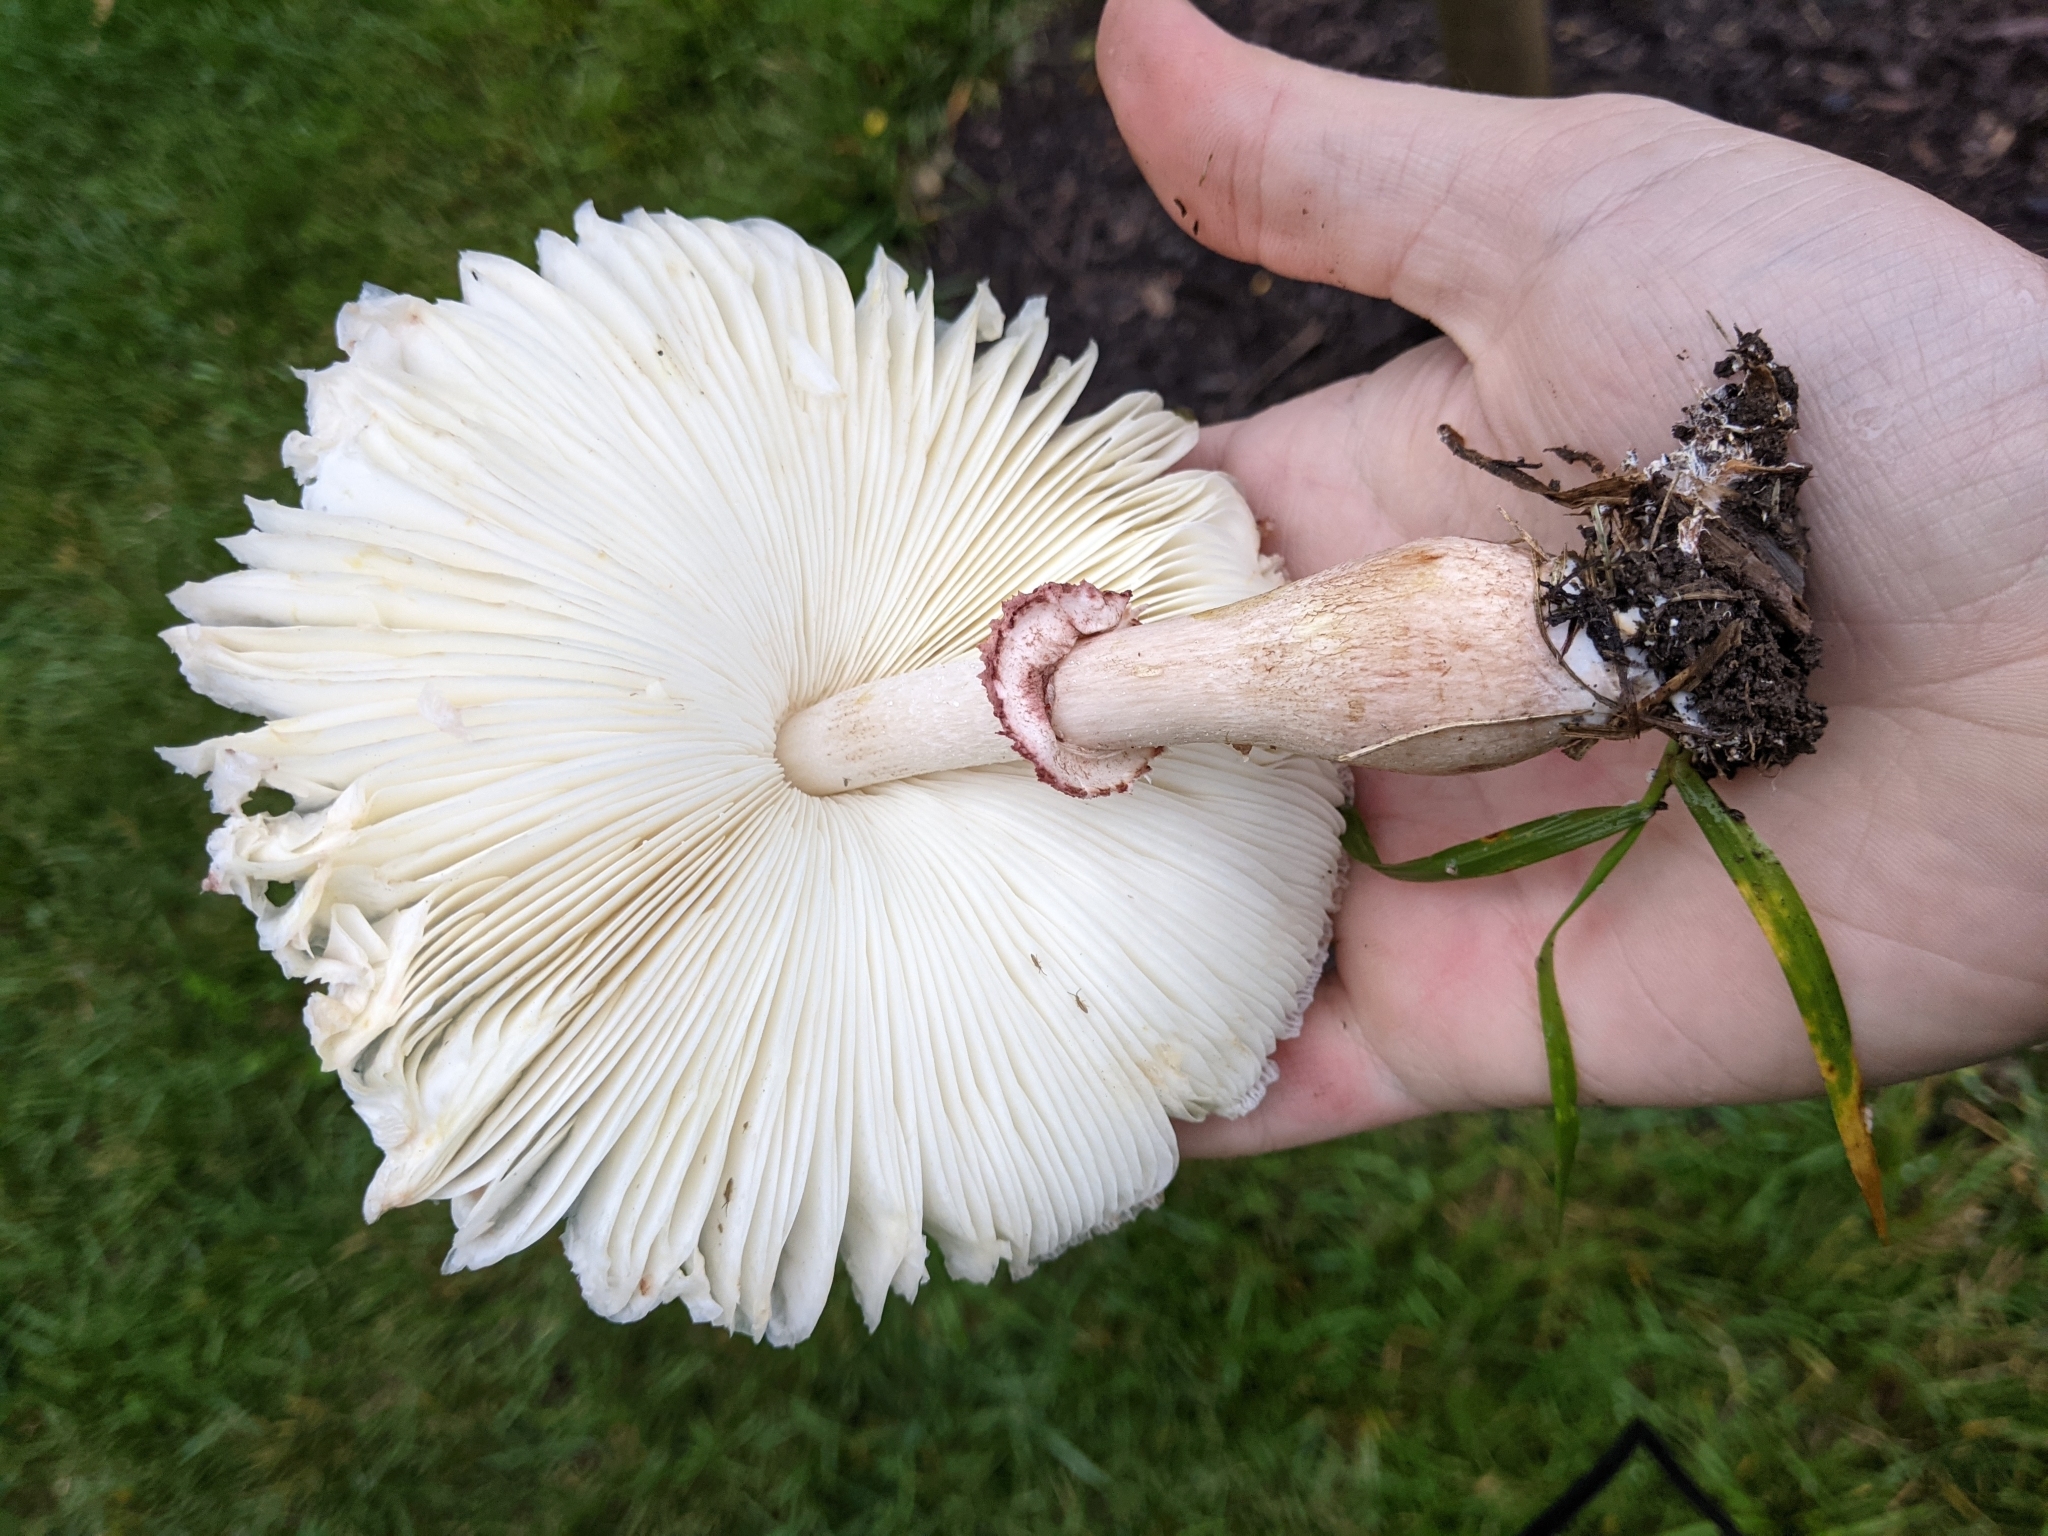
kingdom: Fungi
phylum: Basidiomycota
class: Agaricomycetes
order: Agaricales
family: Agaricaceae
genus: Leucoagaricus
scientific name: Leucoagaricus americanus
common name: Reddening lepiota
